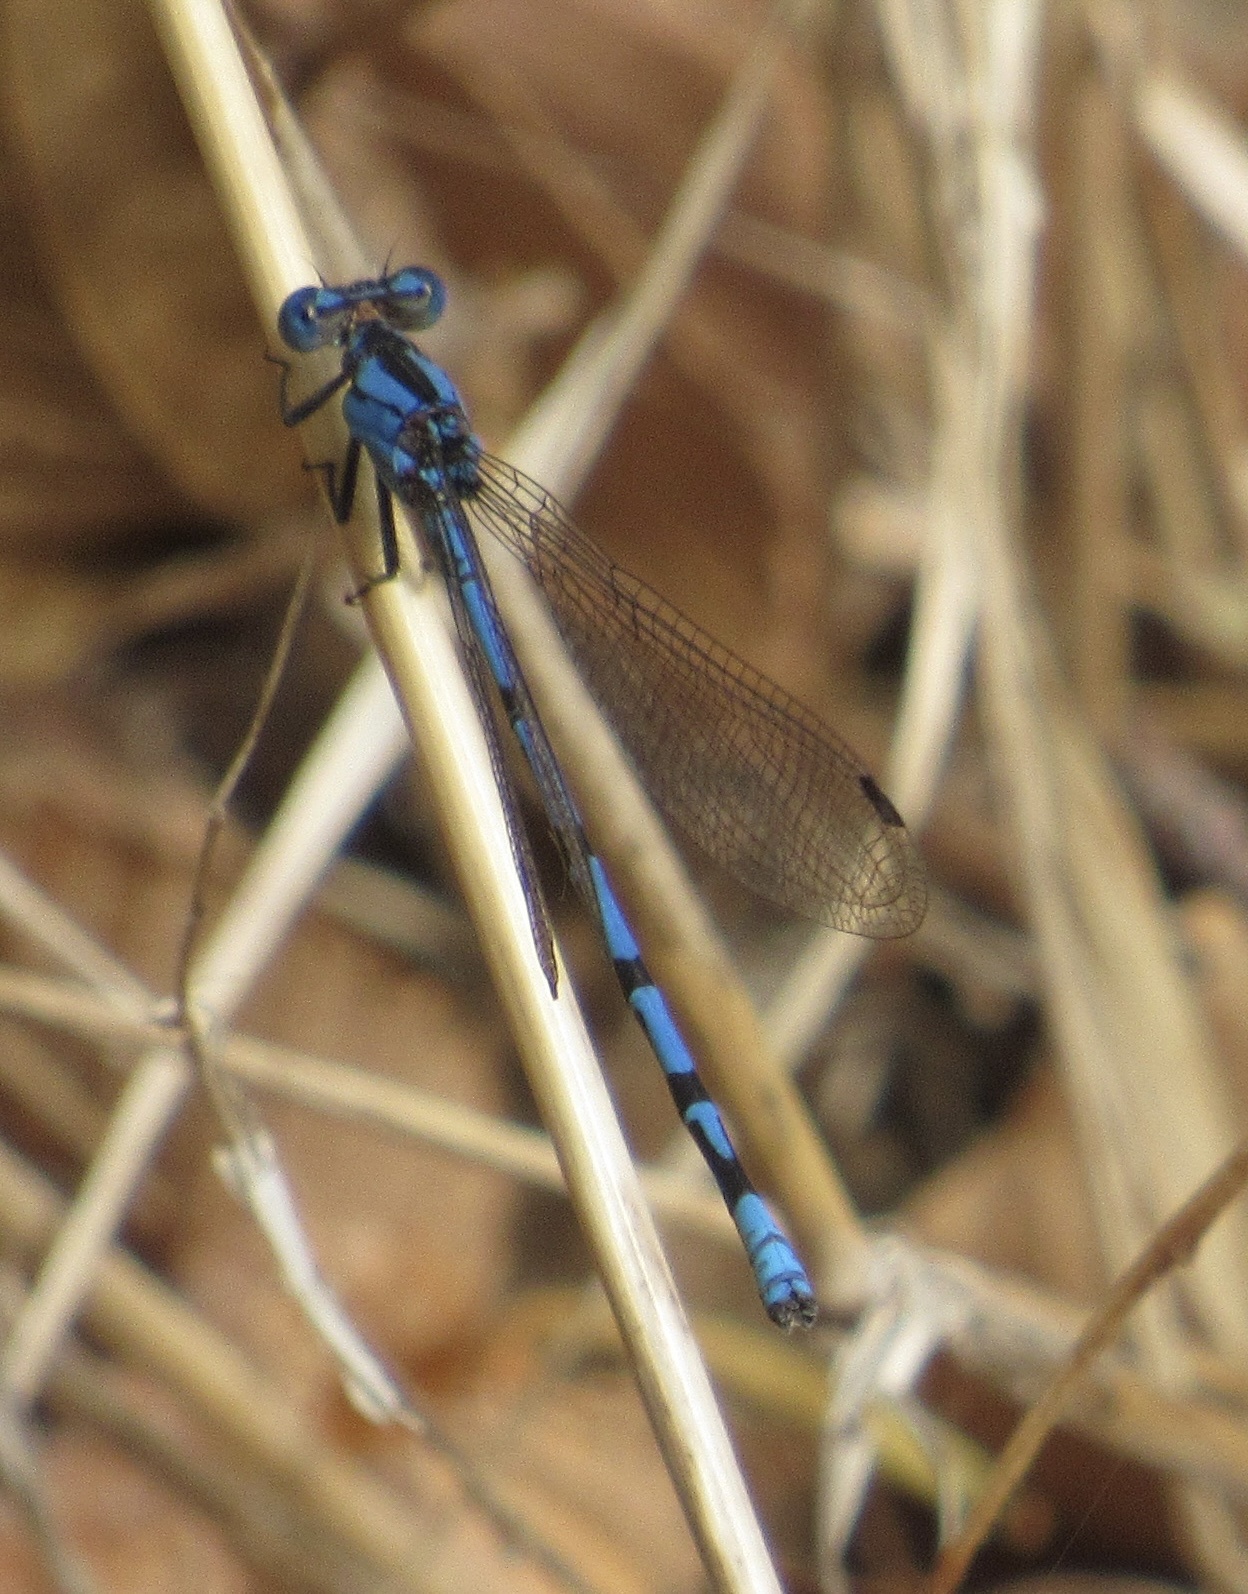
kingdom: Animalia
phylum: Arthropoda
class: Insecta
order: Odonata
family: Coenagrionidae
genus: Argia
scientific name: Argia funebris
